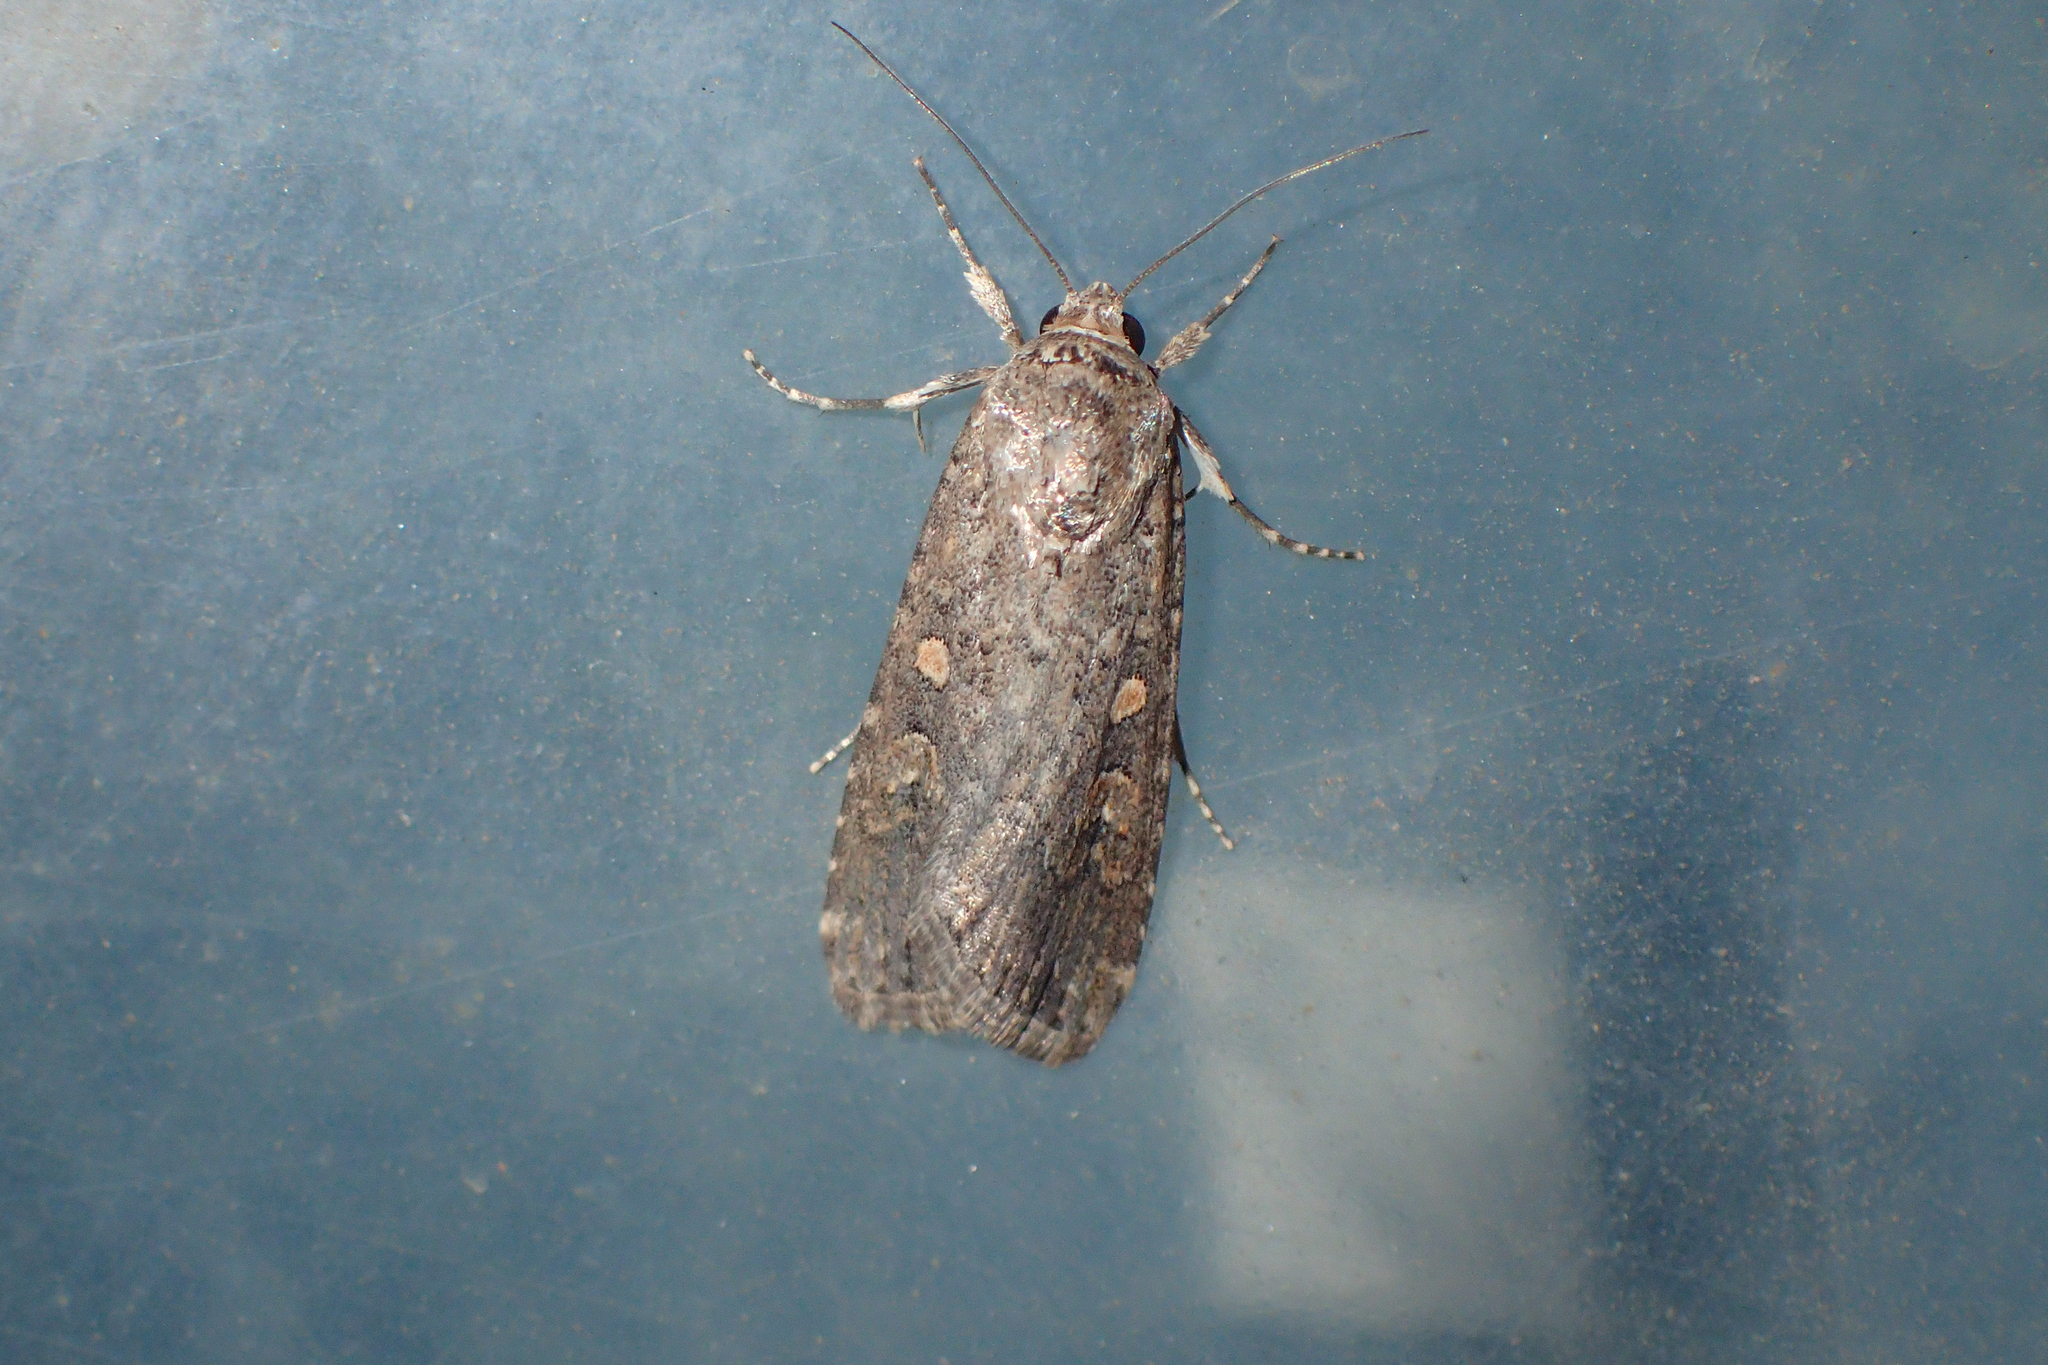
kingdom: Animalia
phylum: Arthropoda
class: Insecta
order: Lepidoptera
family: Noctuidae
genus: Spodoptera
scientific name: Spodoptera exigua
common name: Beet armyworm
